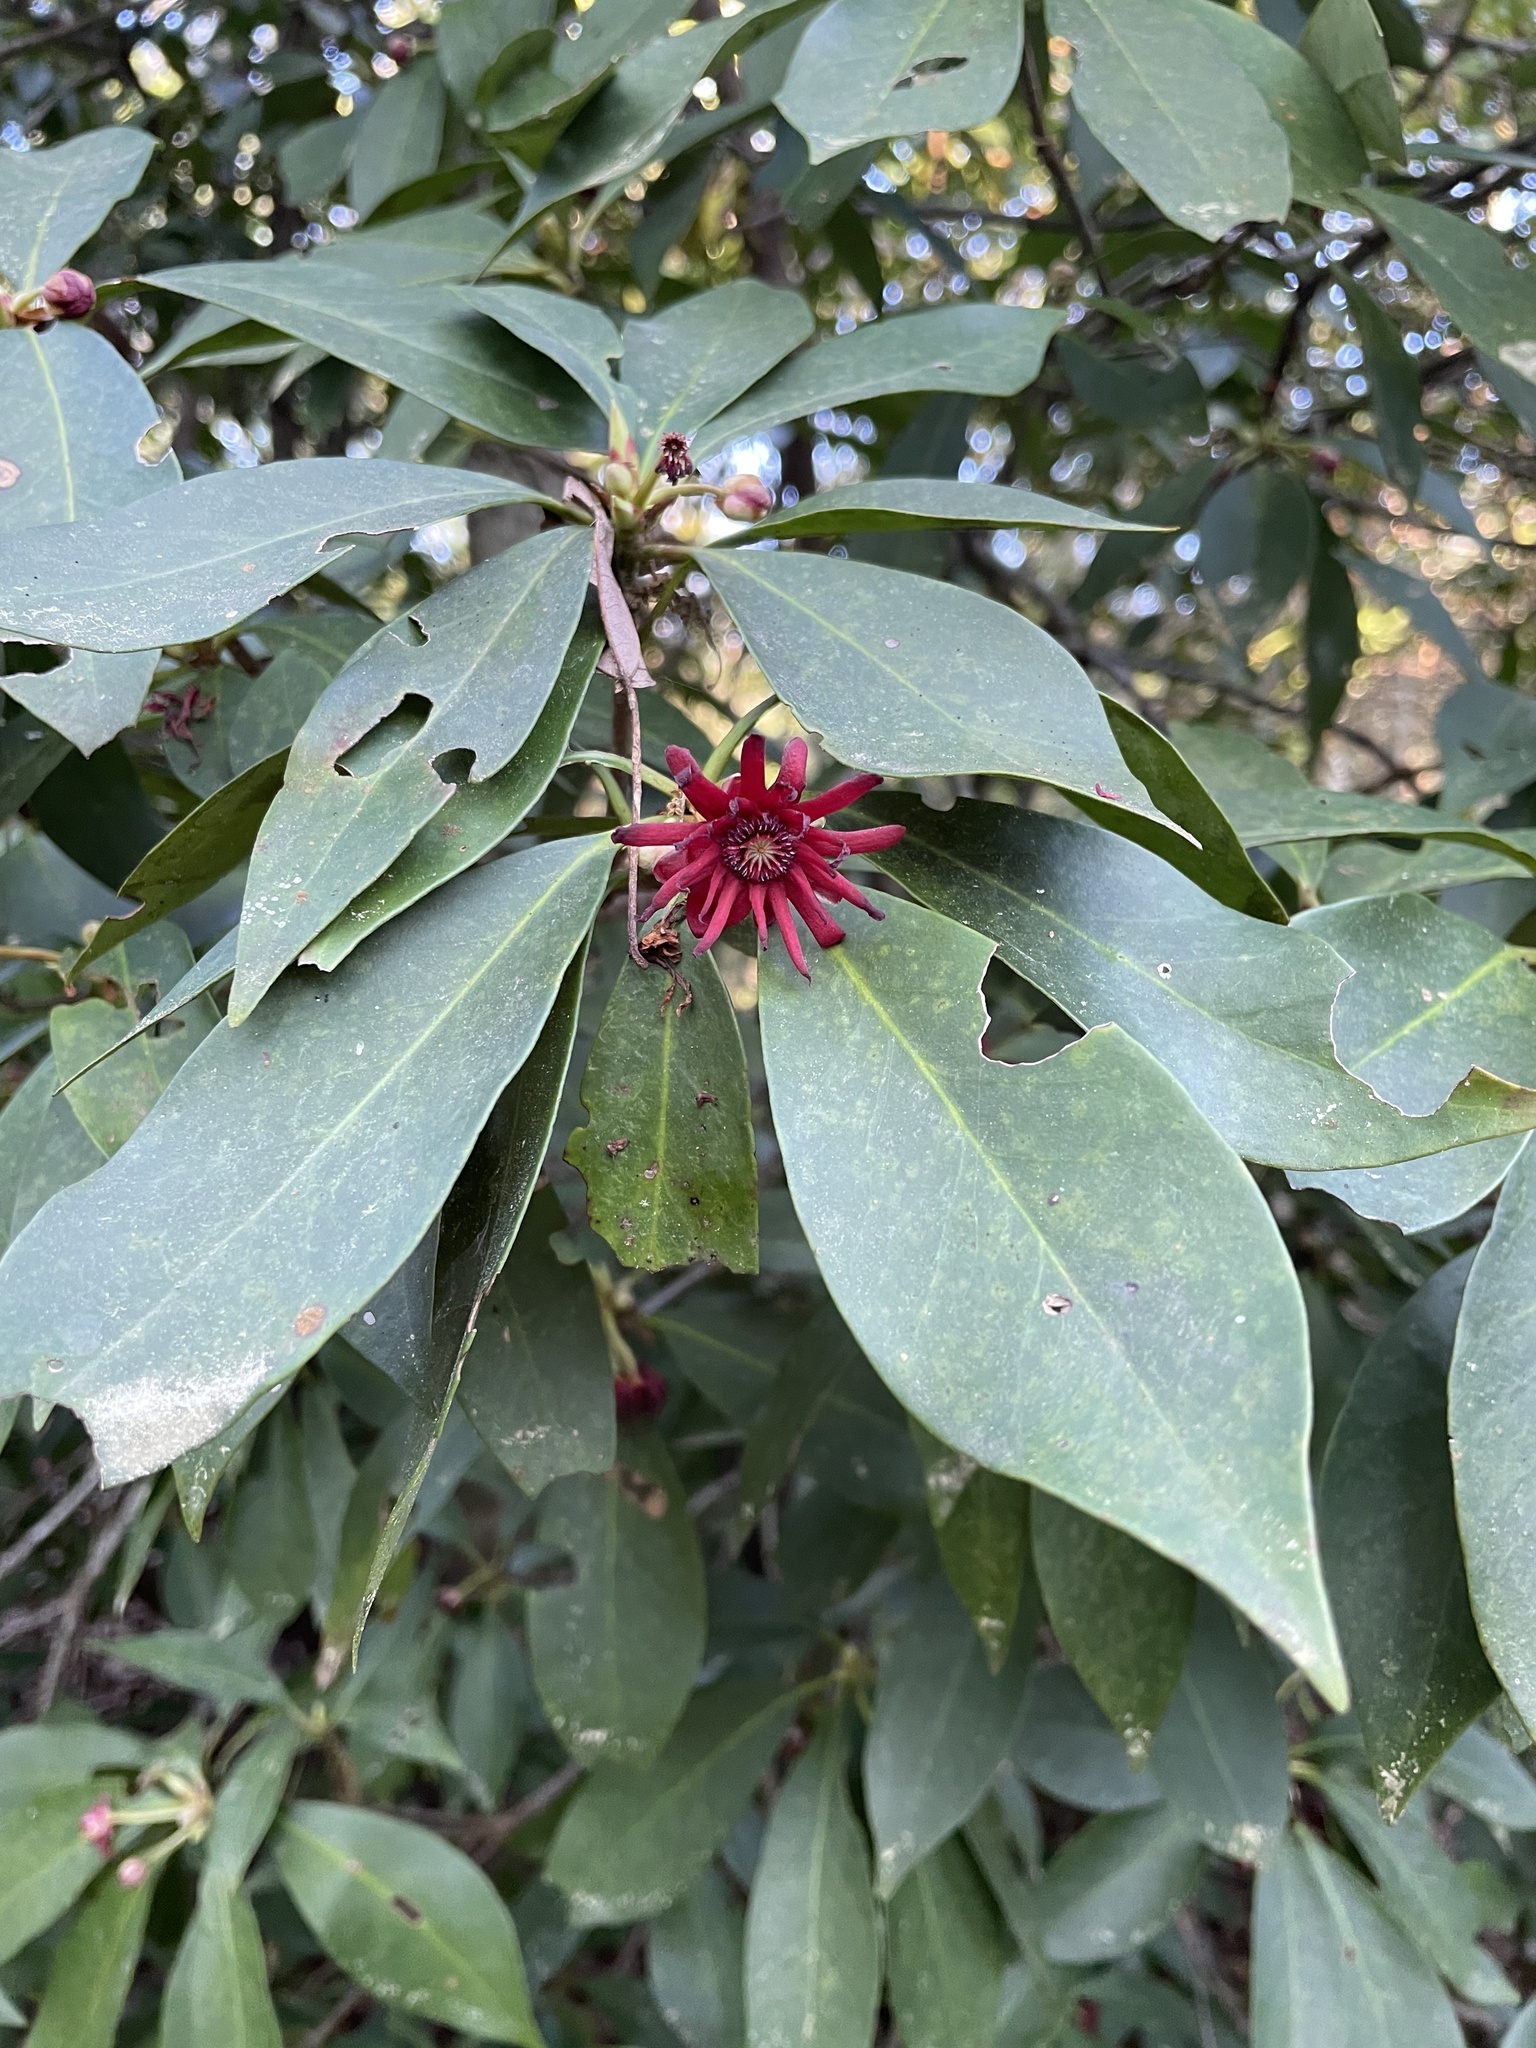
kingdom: Plantae
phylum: Tracheophyta
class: Magnoliopsida
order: Austrobaileyales
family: Schisandraceae
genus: Illicium
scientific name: Illicium floridanum
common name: Florida anisetree
